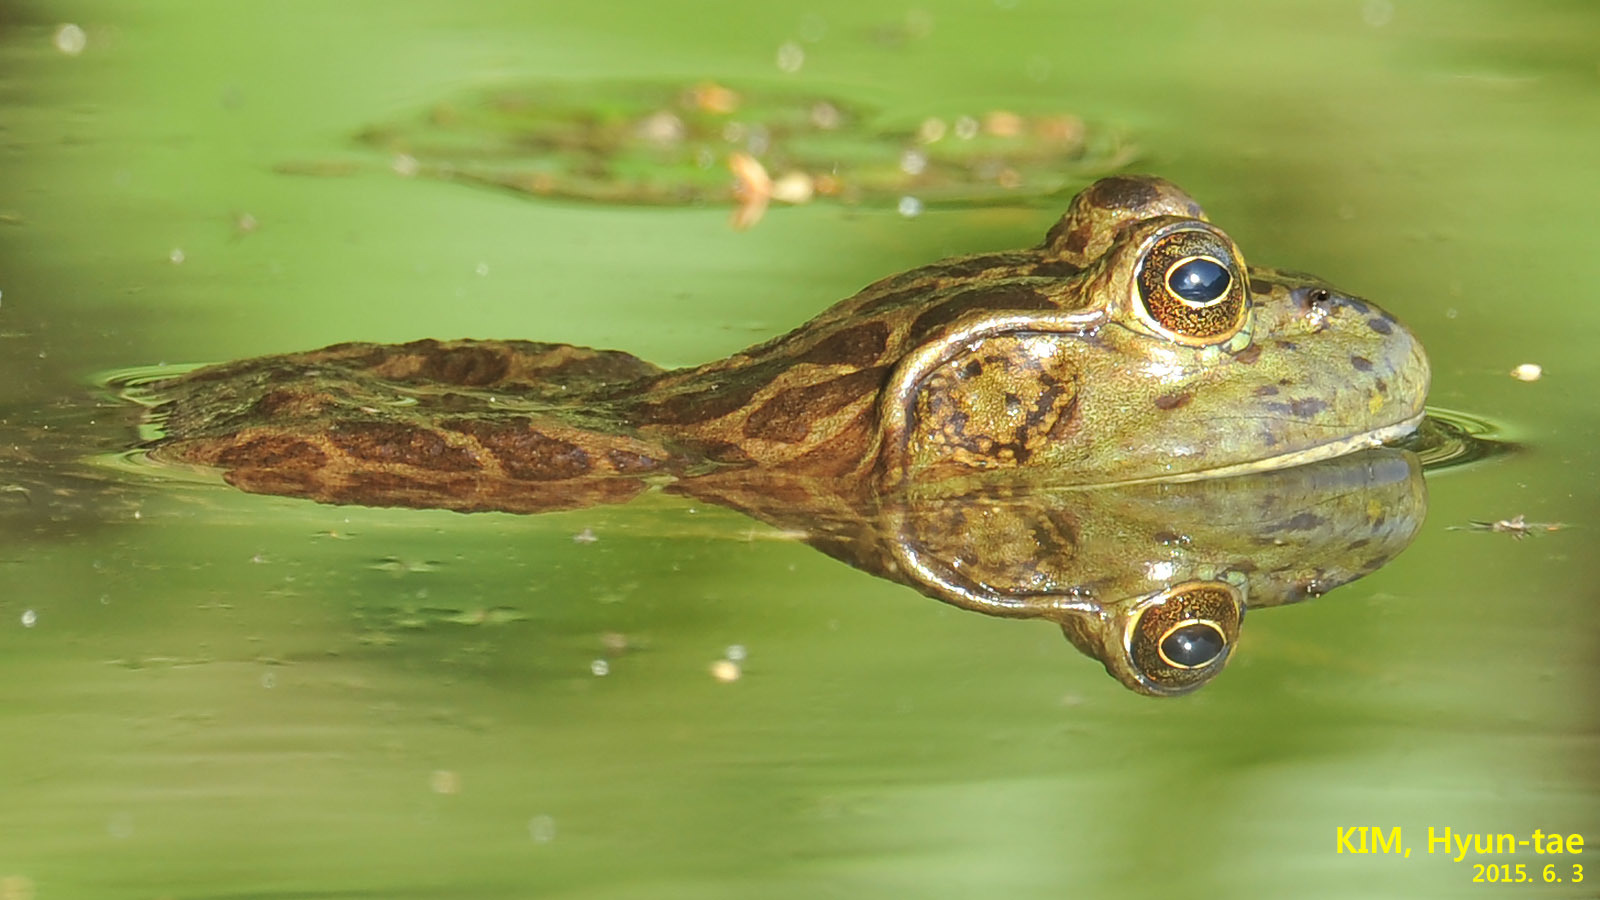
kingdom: Animalia
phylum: Chordata
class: Amphibia
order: Anura
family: Ranidae
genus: Lithobates
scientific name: Lithobates catesbeianus
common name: American bullfrog
